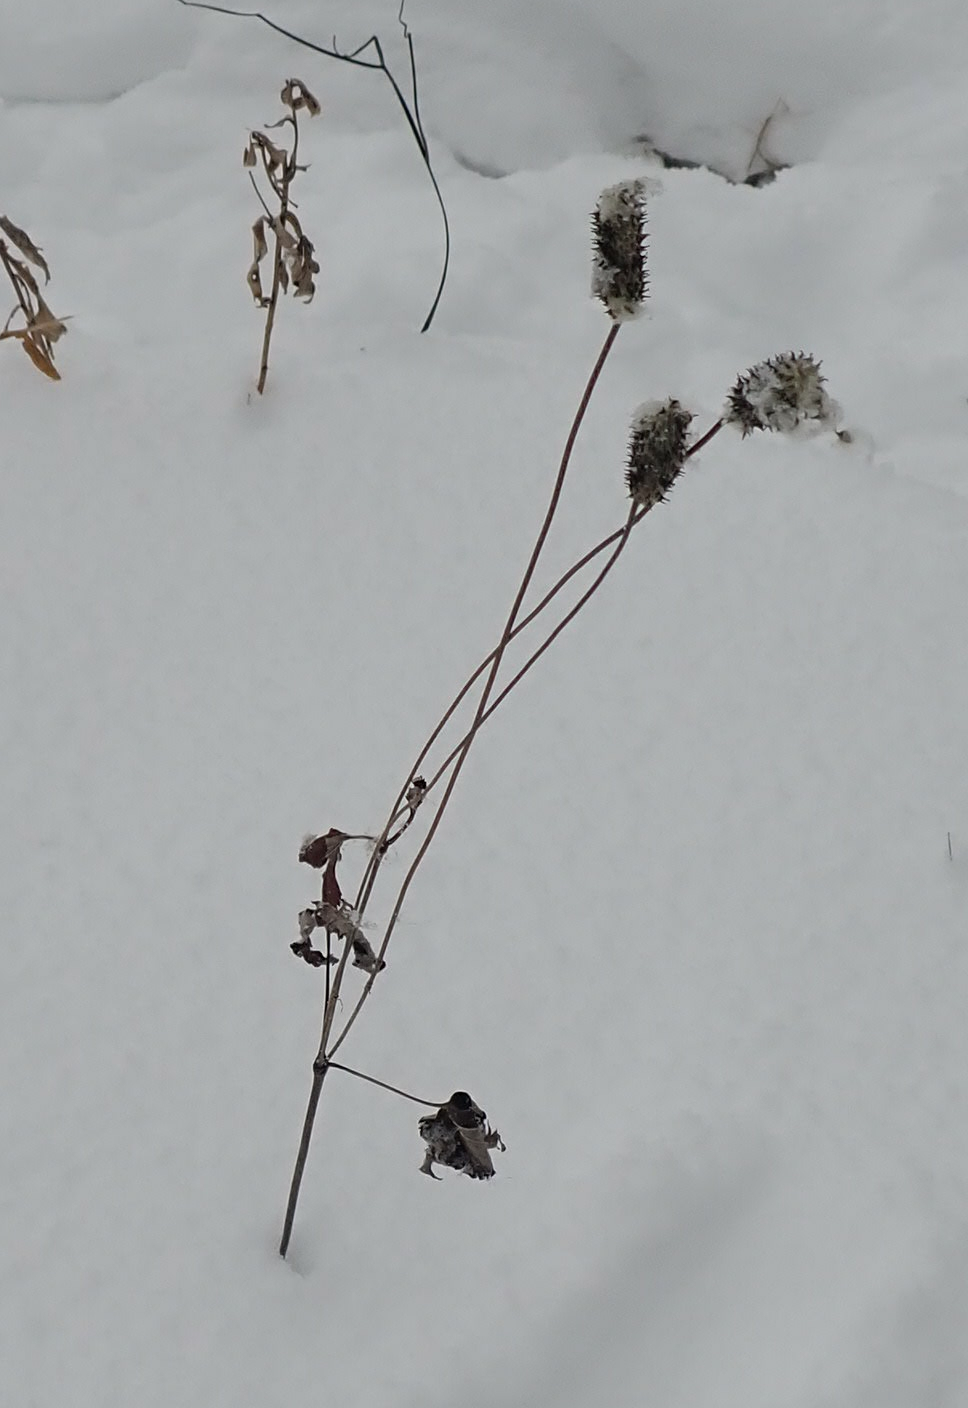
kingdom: Plantae
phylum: Tracheophyta
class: Magnoliopsida
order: Ranunculales
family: Ranunculaceae
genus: Anemone
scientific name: Anemone cylindrica
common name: Candle anemone
